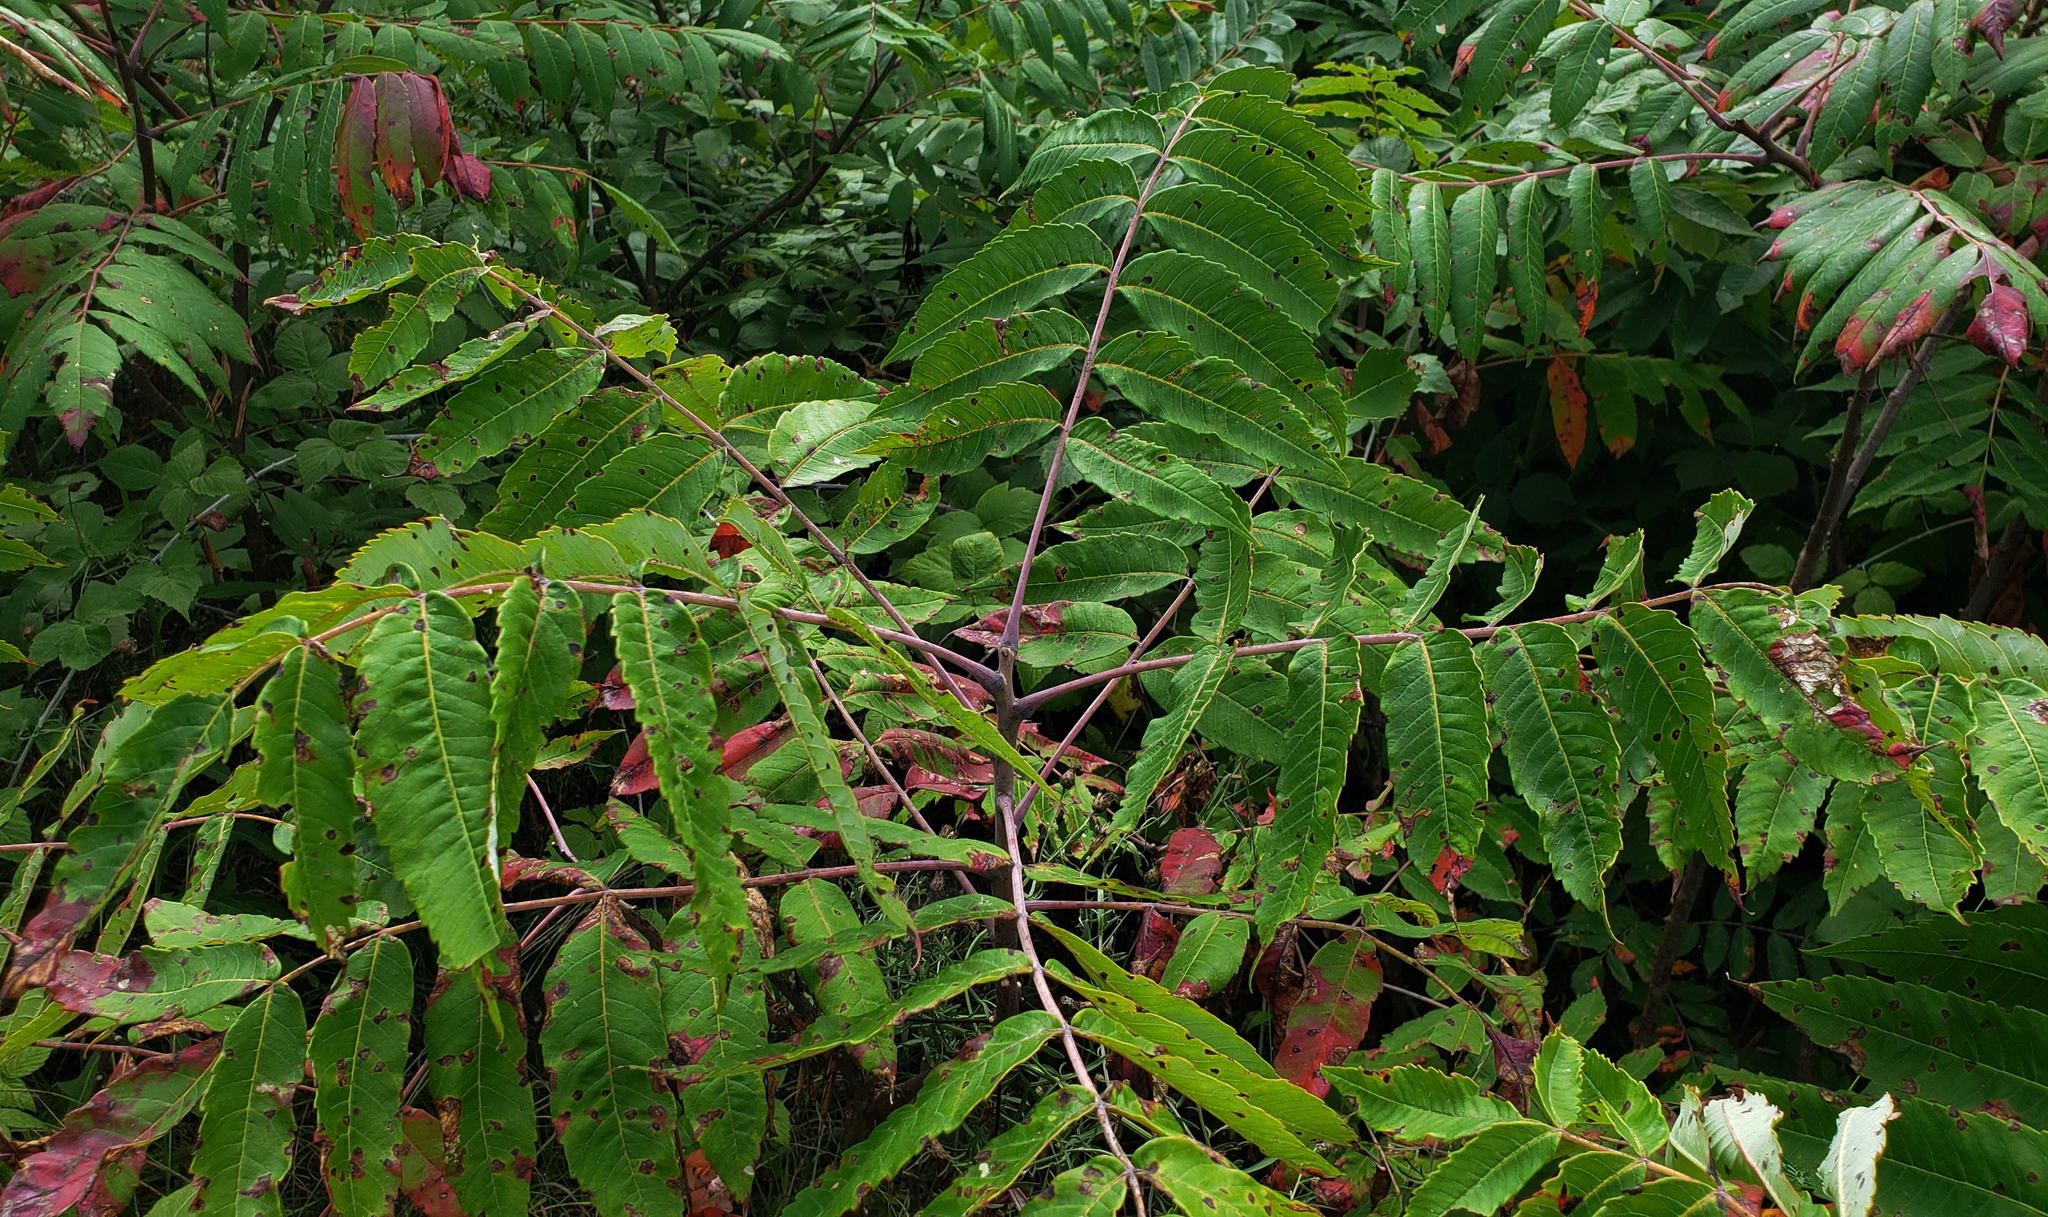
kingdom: Plantae
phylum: Tracheophyta
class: Magnoliopsida
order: Sapindales
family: Anacardiaceae
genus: Rhus
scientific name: Rhus glabra
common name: Scarlet sumac
